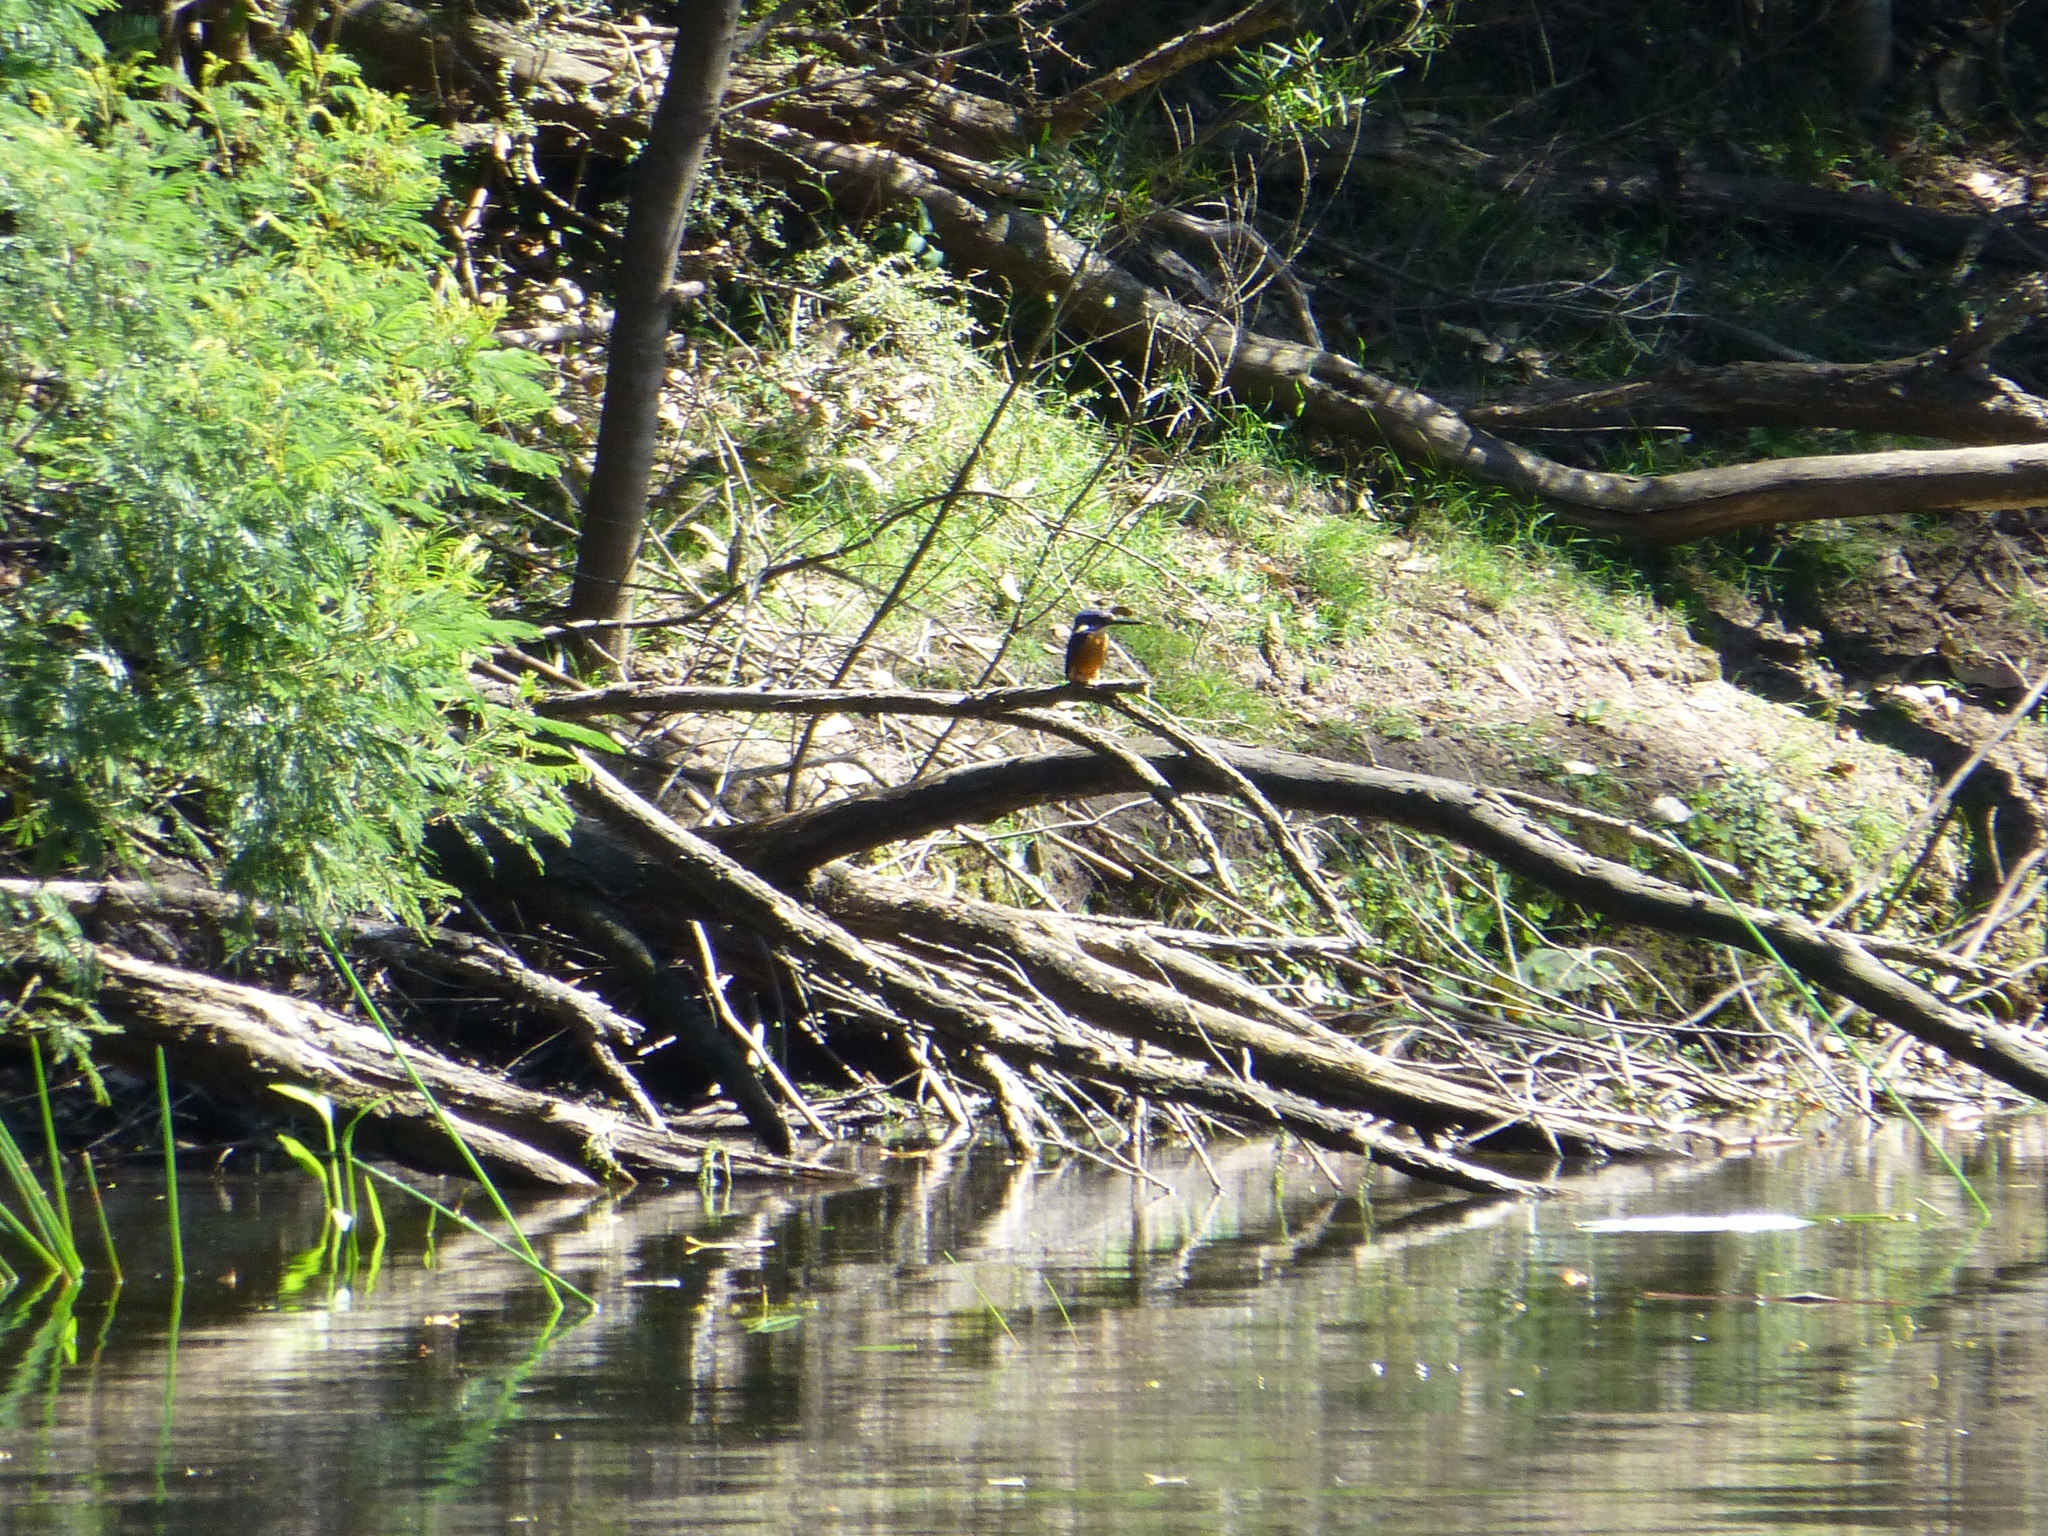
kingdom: Animalia
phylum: Chordata
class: Aves
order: Coraciiformes
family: Alcedinidae
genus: Ceyx
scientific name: Ceyx azureus
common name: Azure kingfisher
